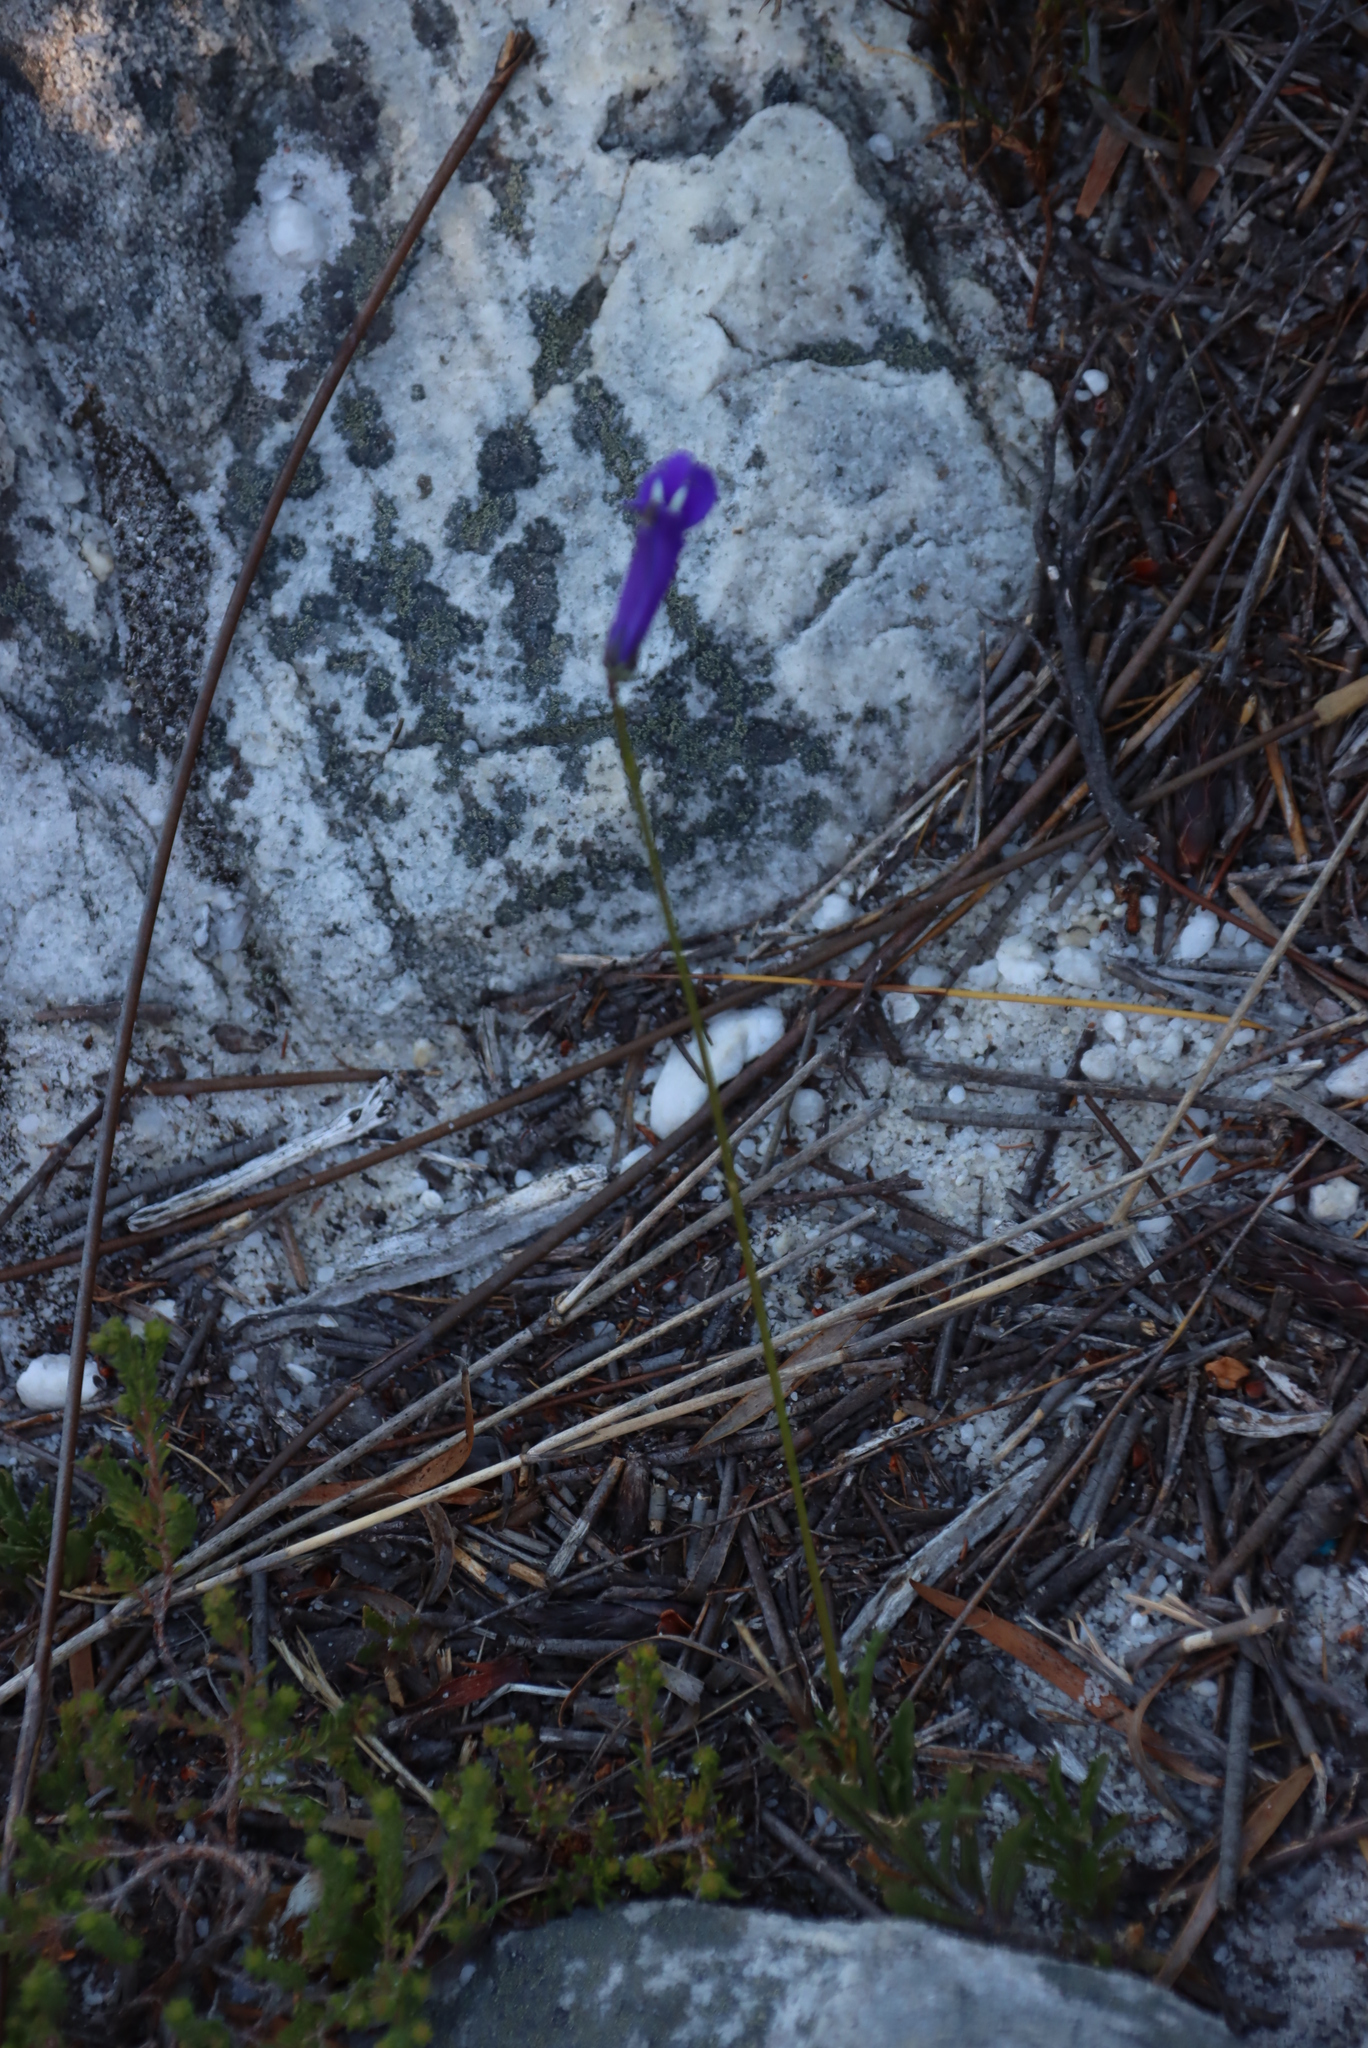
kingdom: Plantae
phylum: Tracheophyta
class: Magnoliopsida
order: Asterales
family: Campanulaceae
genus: Lobelia
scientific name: Lobelia coronopifolia
